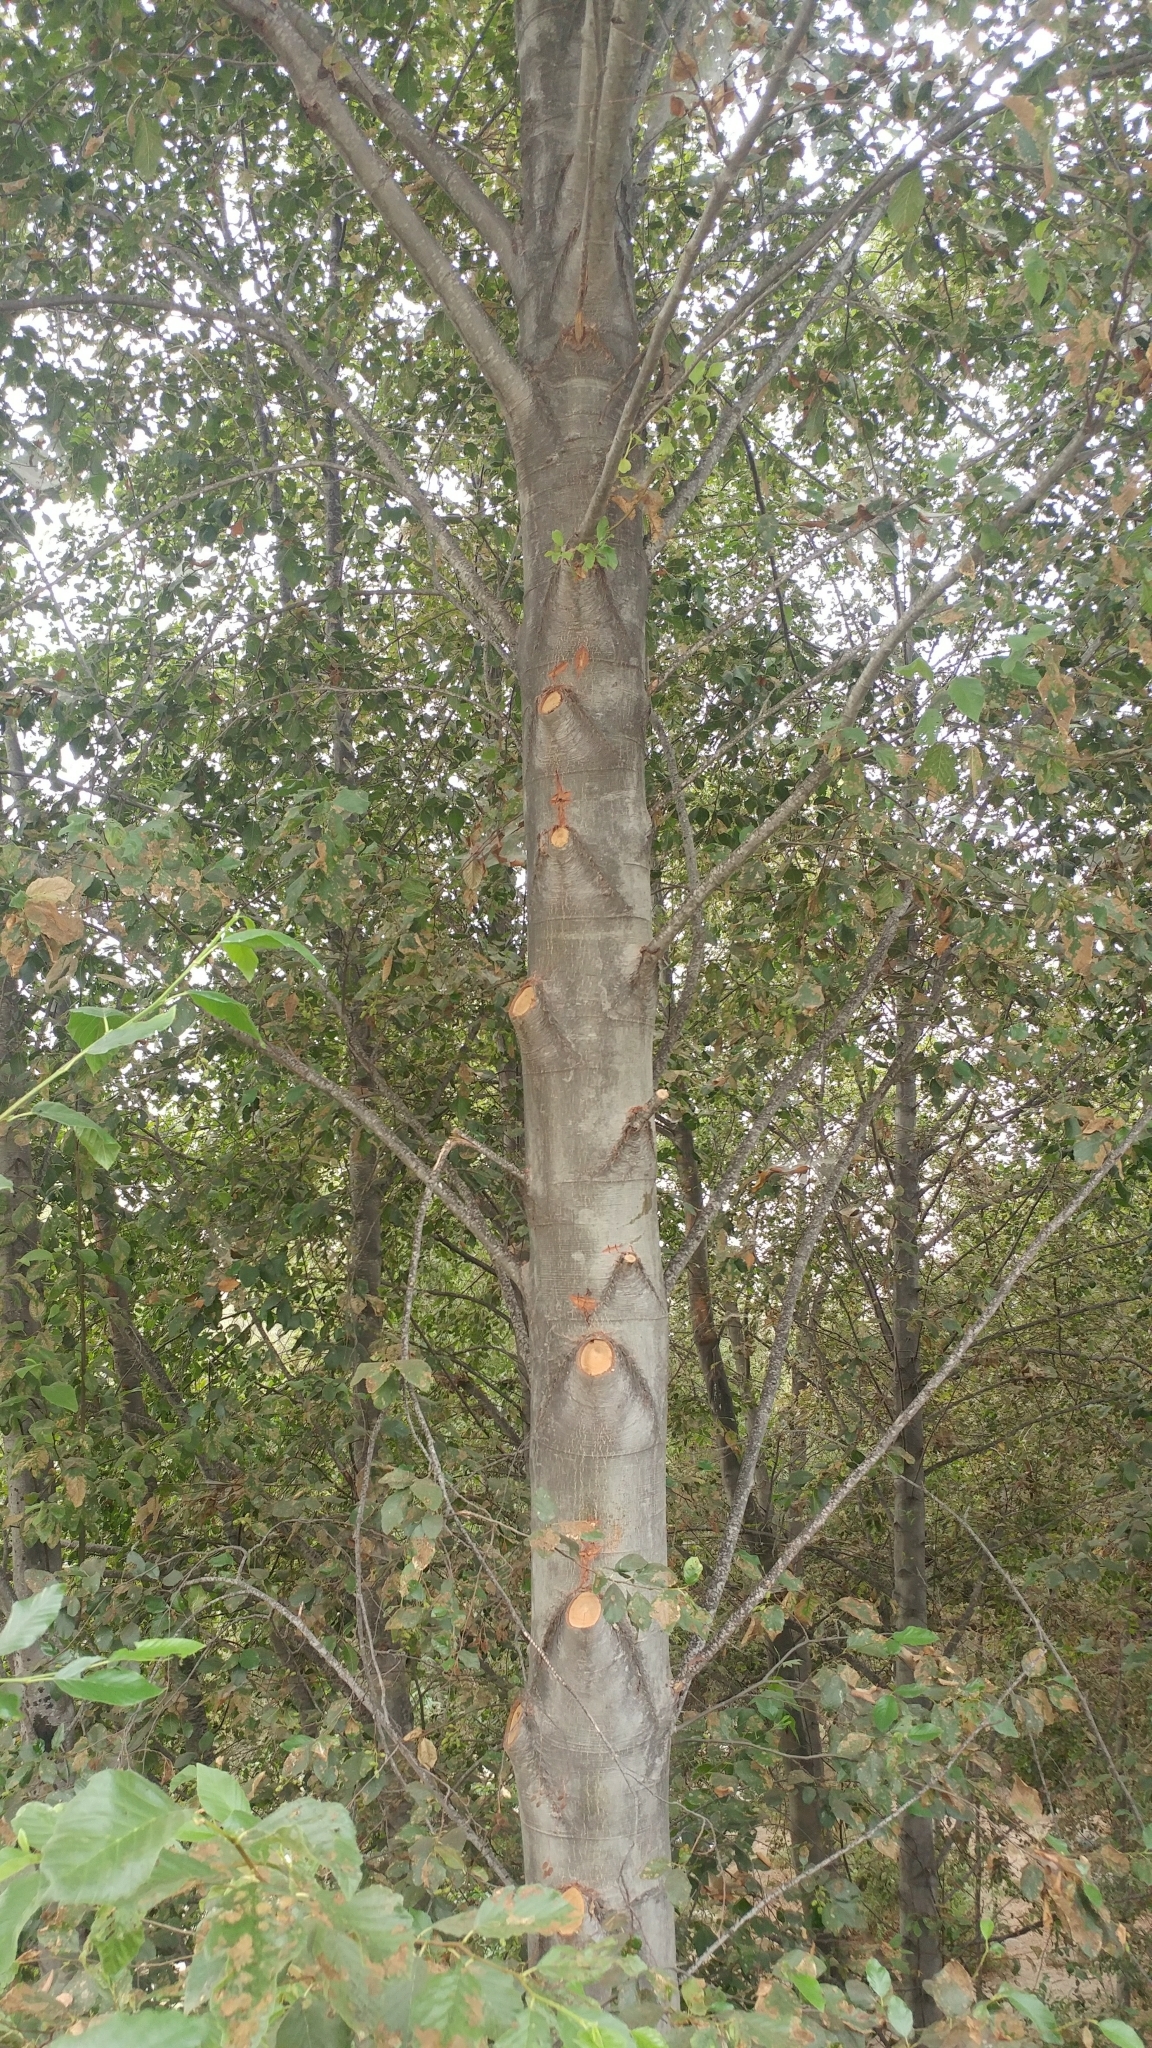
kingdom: Plantae
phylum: Tracheophyta
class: Magnoliopsida
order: Fagales
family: Betulaceae
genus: Alnus
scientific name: Alnus rhombifolia
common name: California alder
